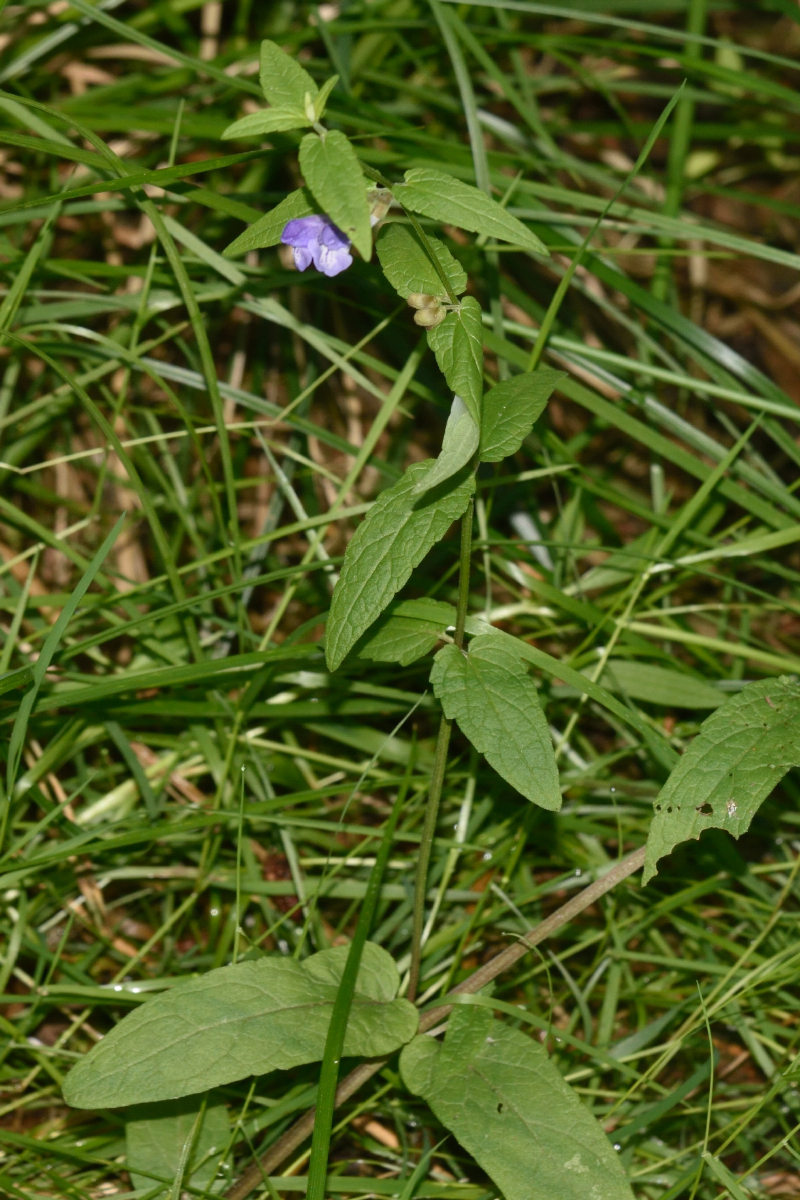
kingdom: Plantae
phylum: Tracheophyta
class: Magnoliopsida
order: Lamiales
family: Lamiaceae
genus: Scutellaria
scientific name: Scutellaria galericulata
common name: Skullcap
